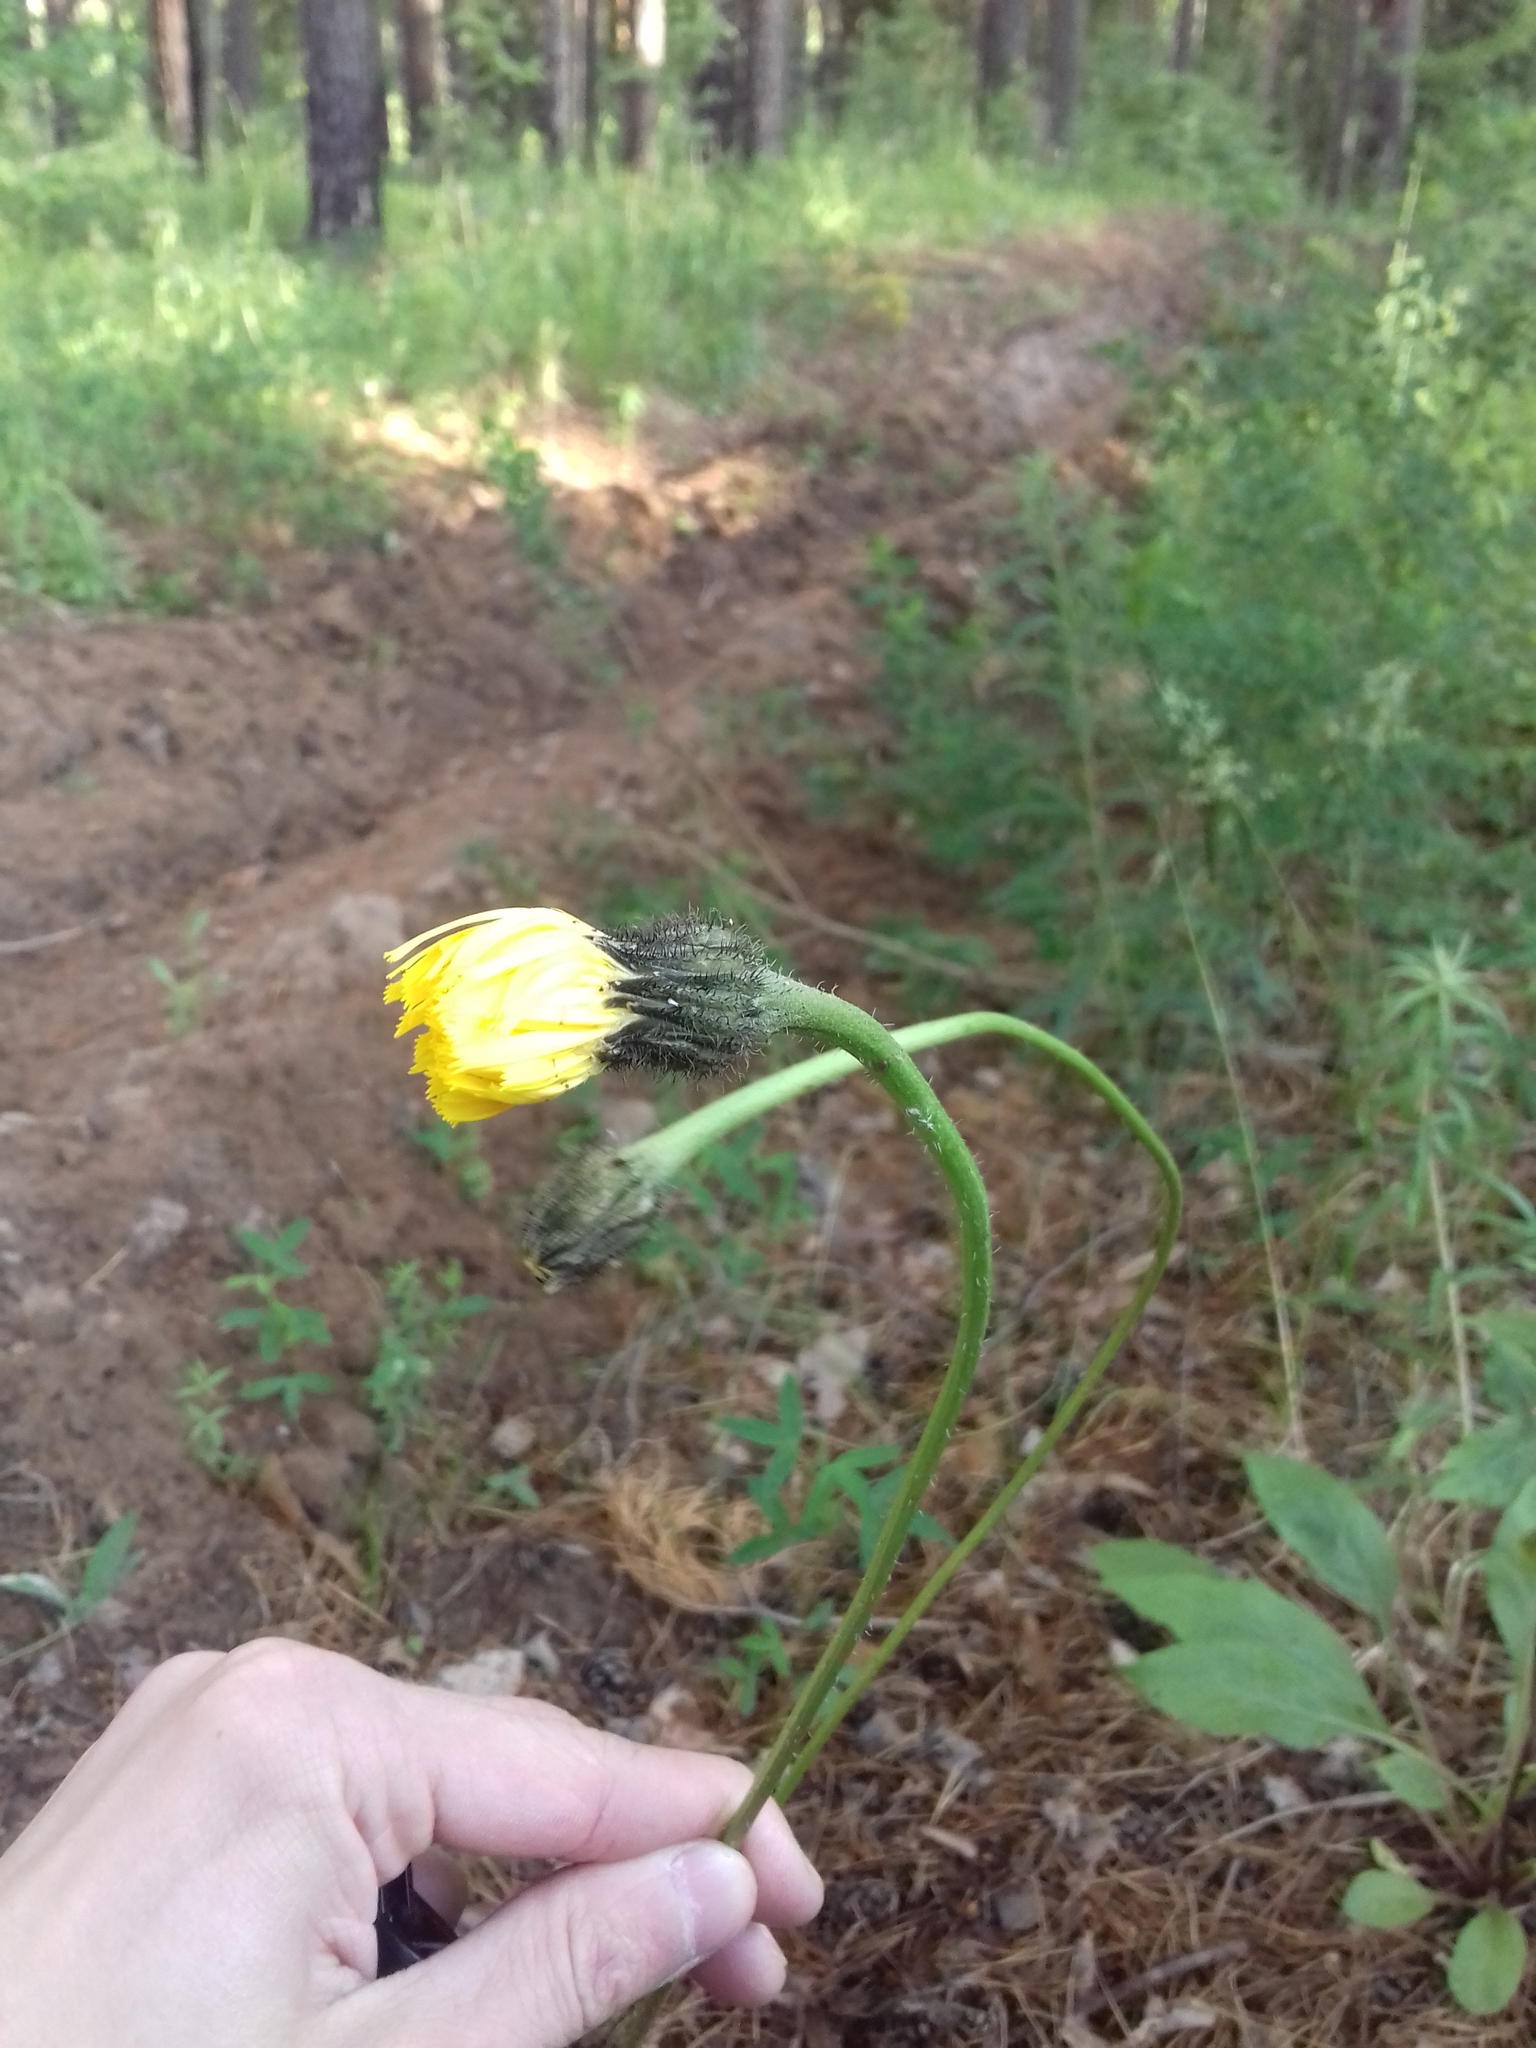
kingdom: Plantae
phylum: Tracheophyta
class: Magnoliopsida
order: Asterales
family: Asteraceae
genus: Trommsdorffia
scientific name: Trommsdorffia maculata
